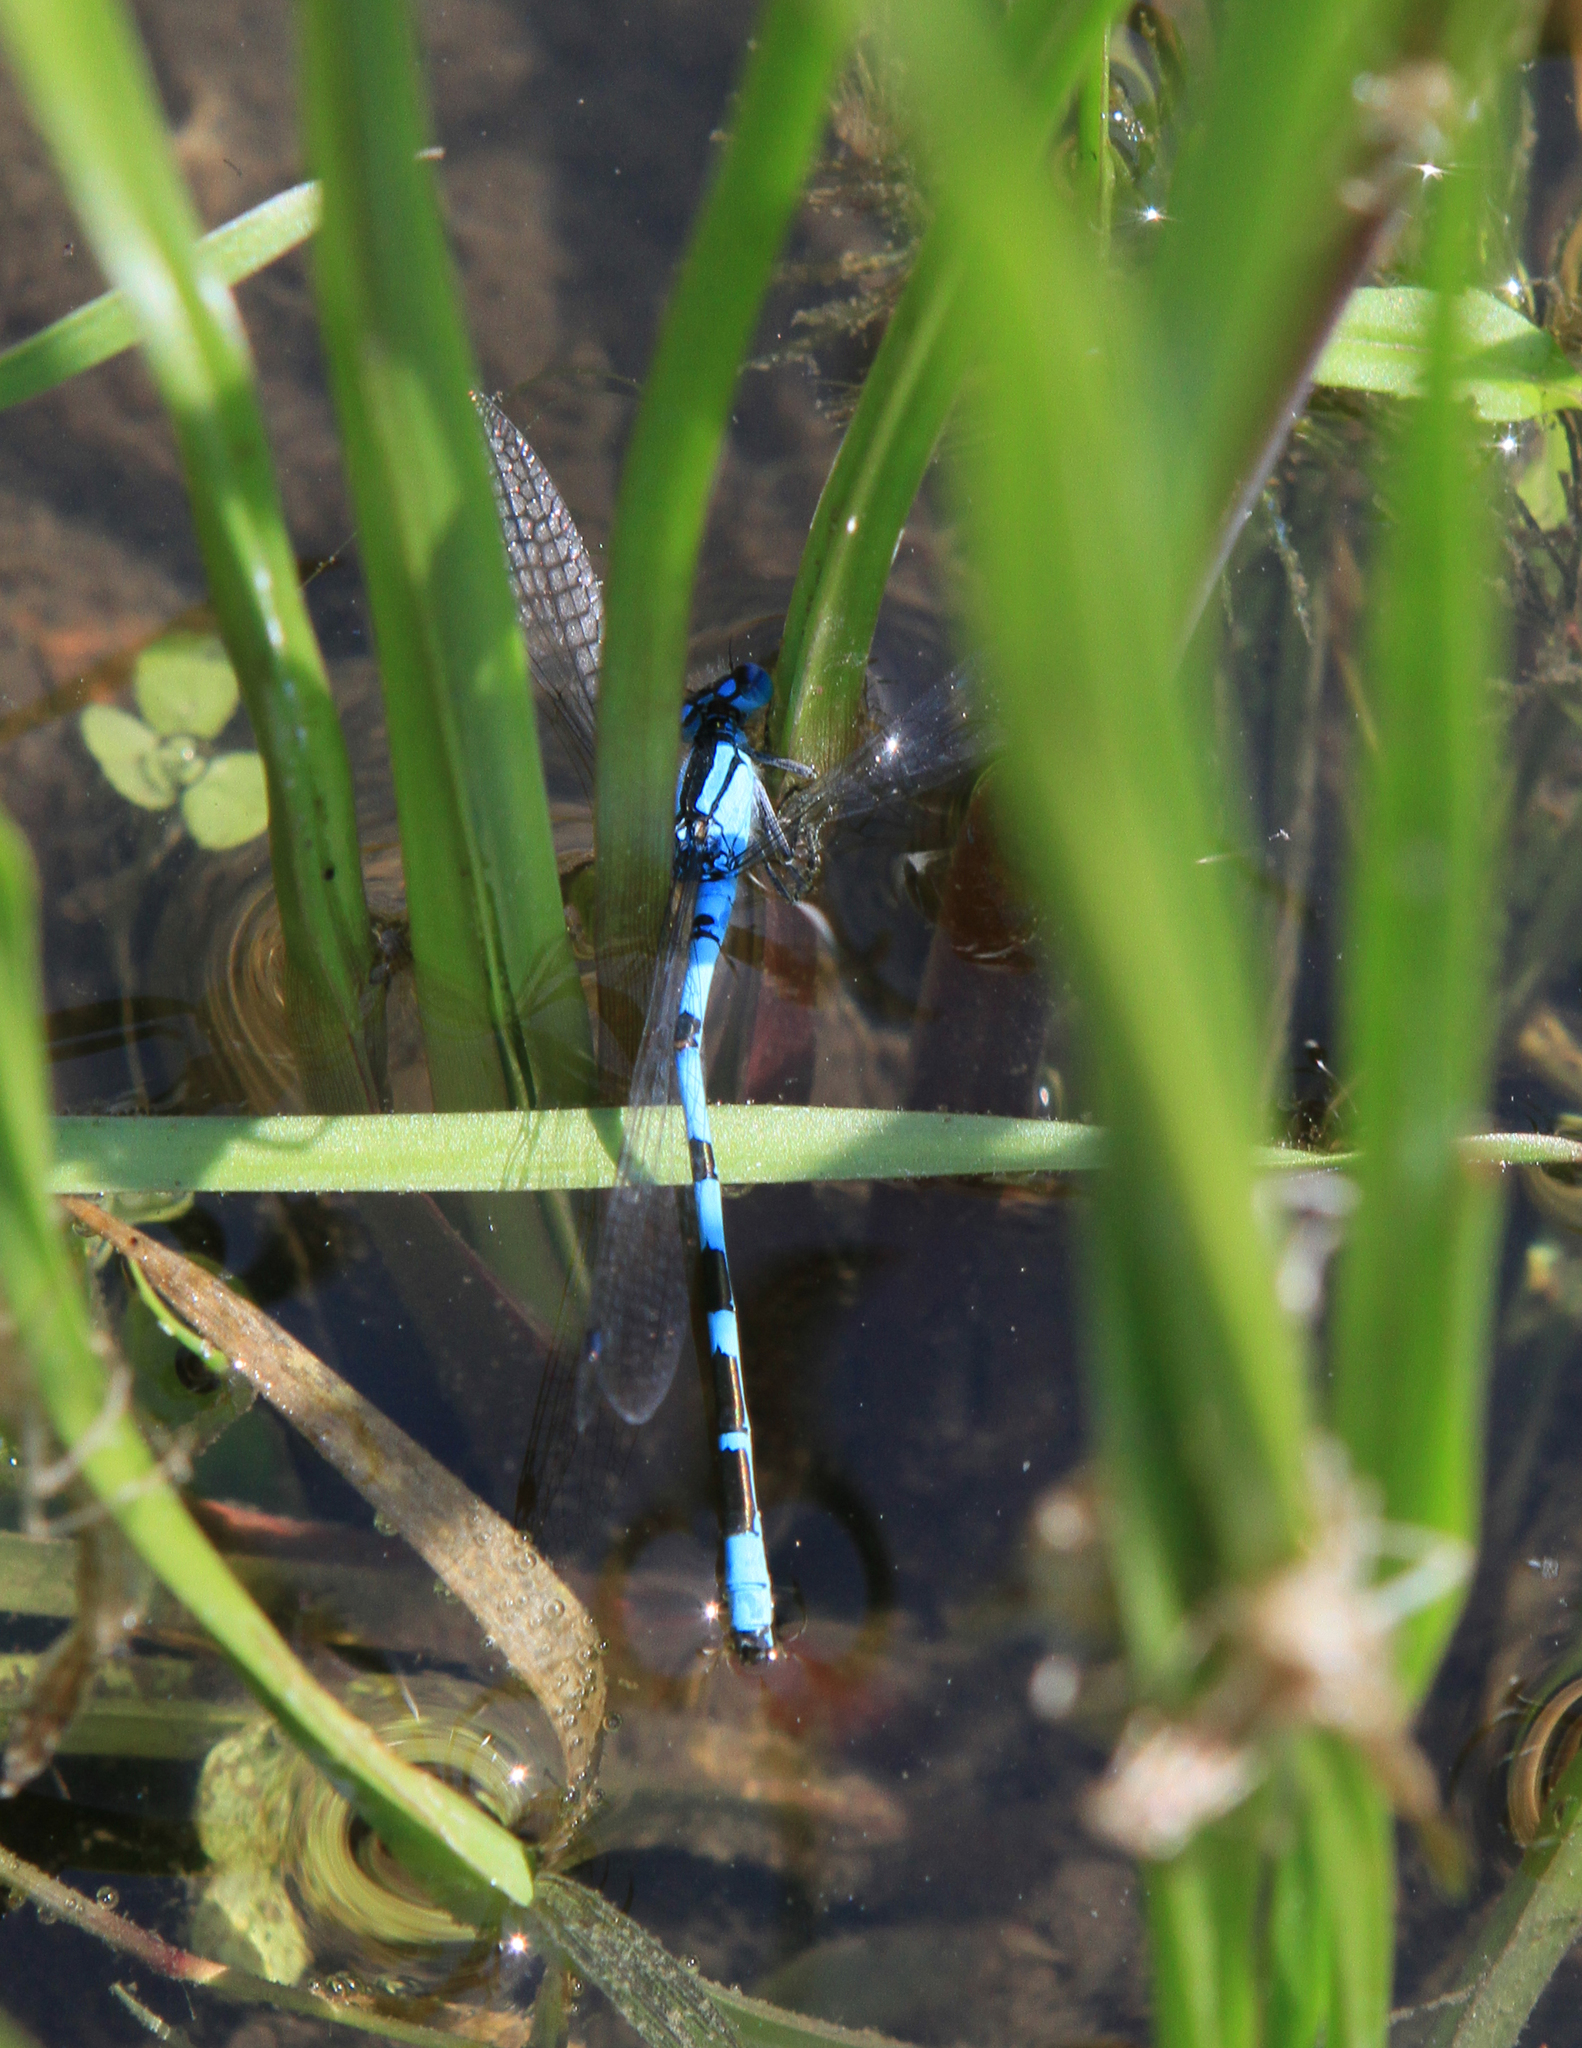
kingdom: Animalia
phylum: Arthropoda
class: Insecta
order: Odonata
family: Coenagrionidae
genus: Enallagma
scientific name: Enallagma cyathigerum
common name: Common blue damselfly
